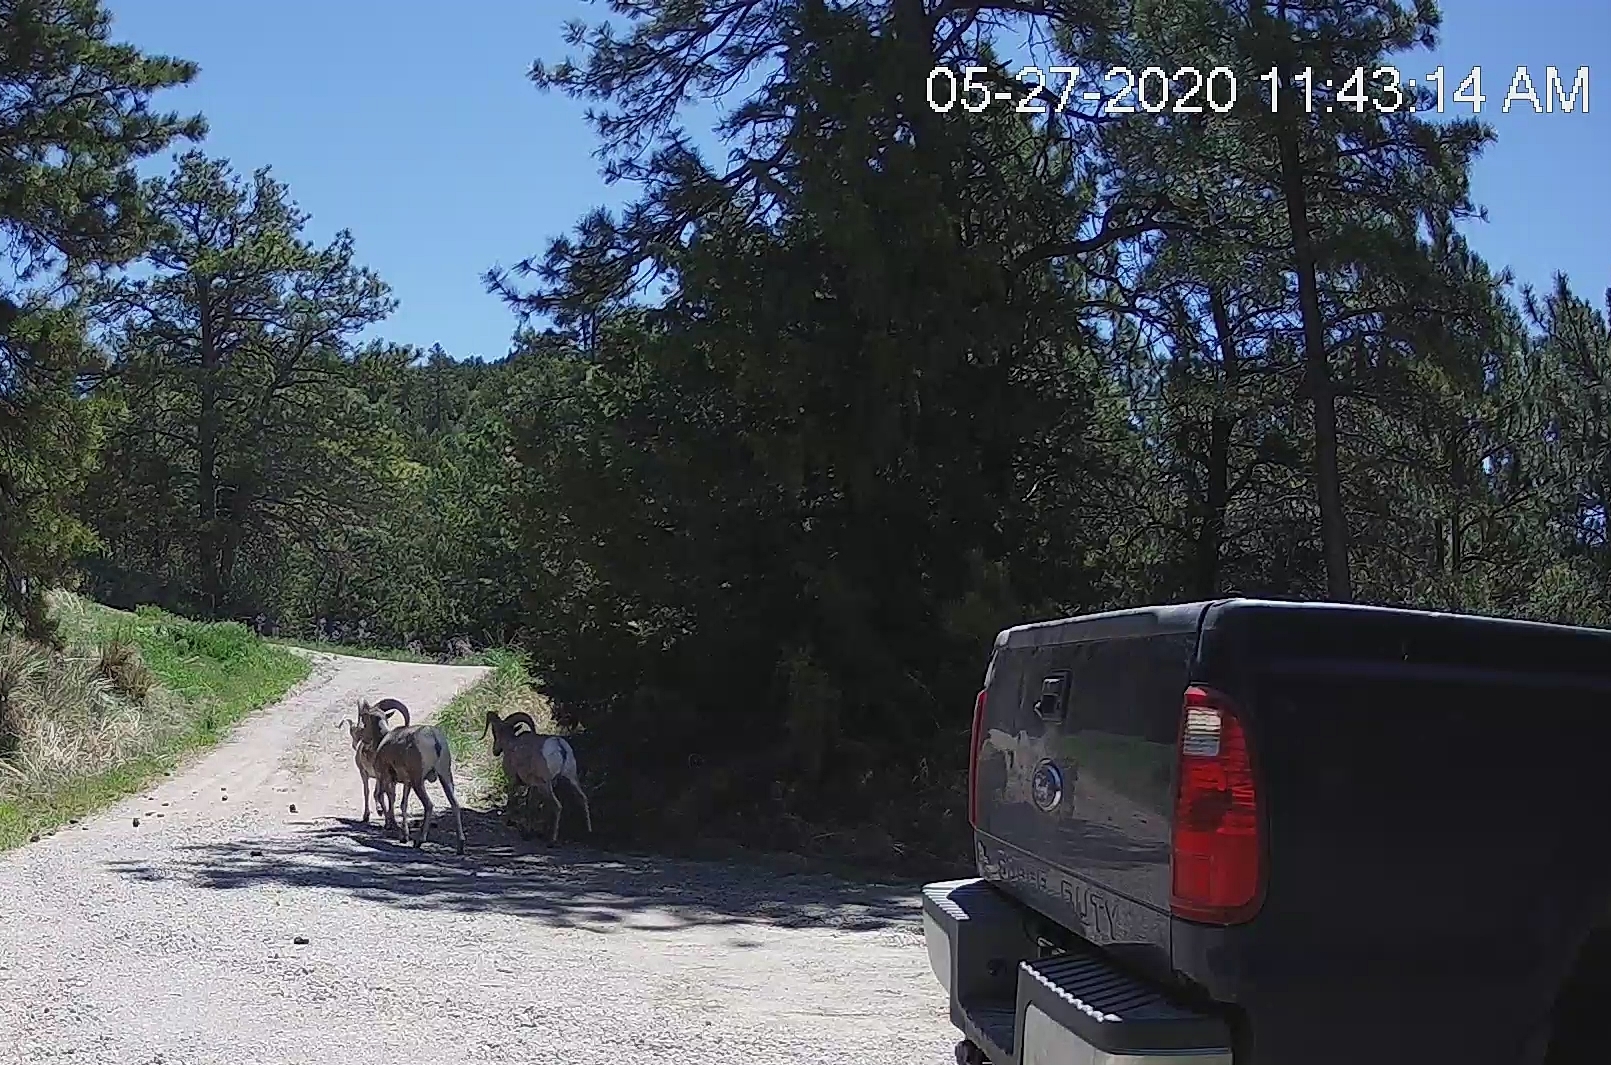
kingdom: Animalia
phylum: Chordata
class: Mammalia
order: Artiodactyla
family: Bovidae
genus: Ovis
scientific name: Ovis canadensis
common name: Bighorn sheep
